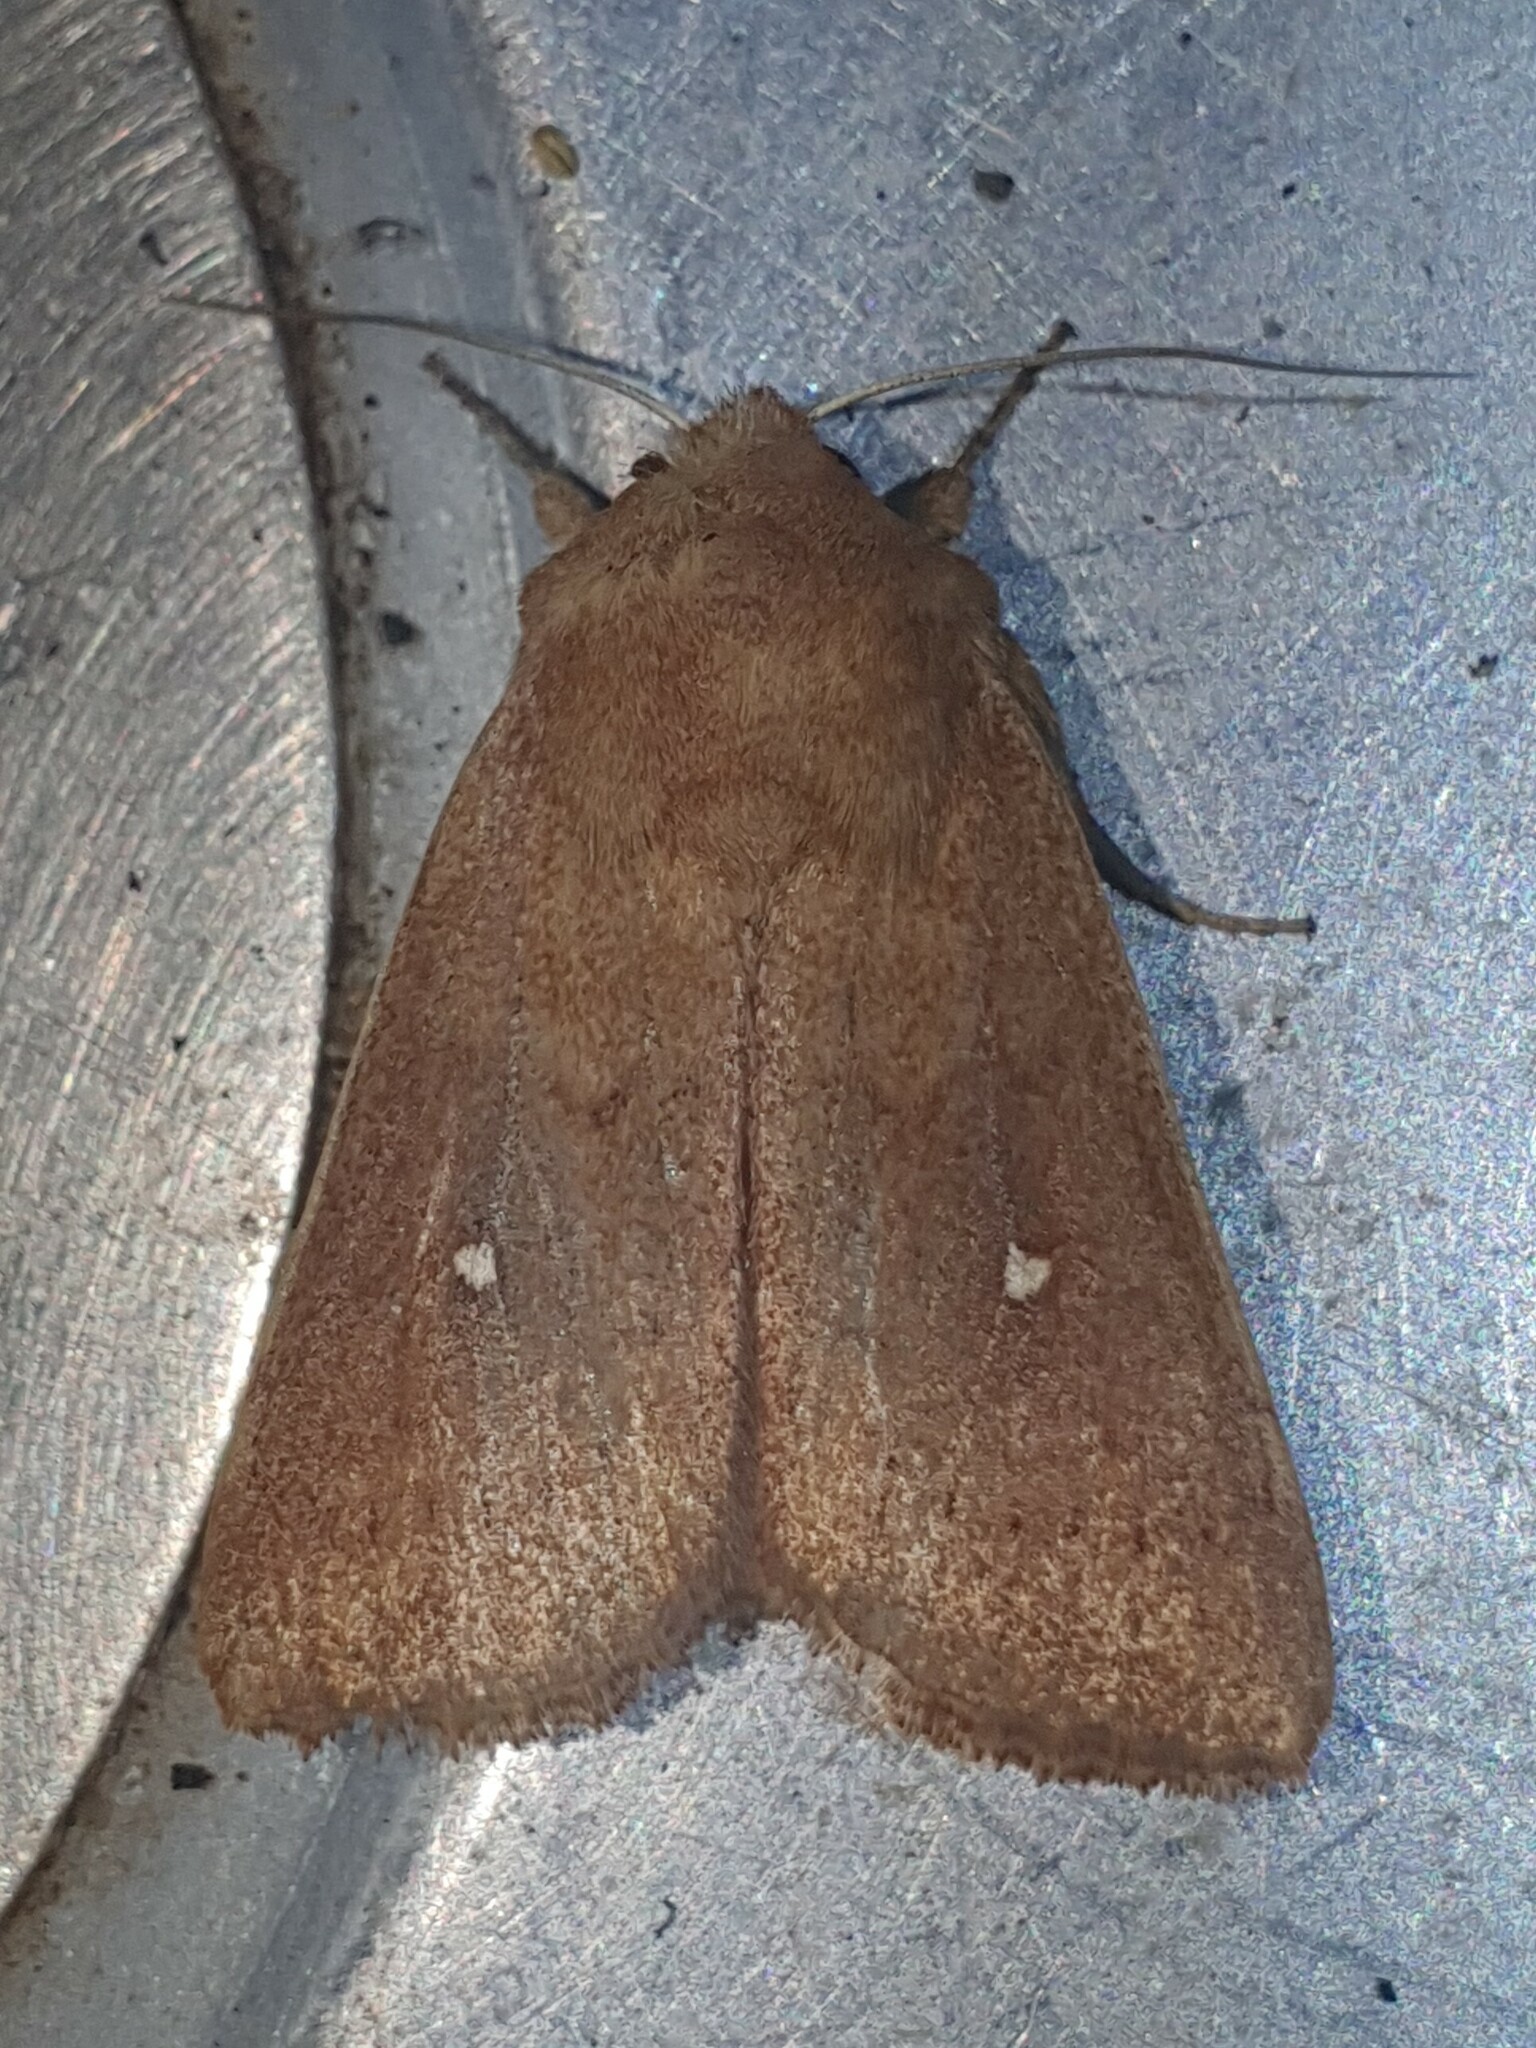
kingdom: Animalia
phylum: Arthropoda
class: Insecta
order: Lepidoptera
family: Noctuidae
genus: Mythimna
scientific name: Mythimna albipuncta
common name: White-point
